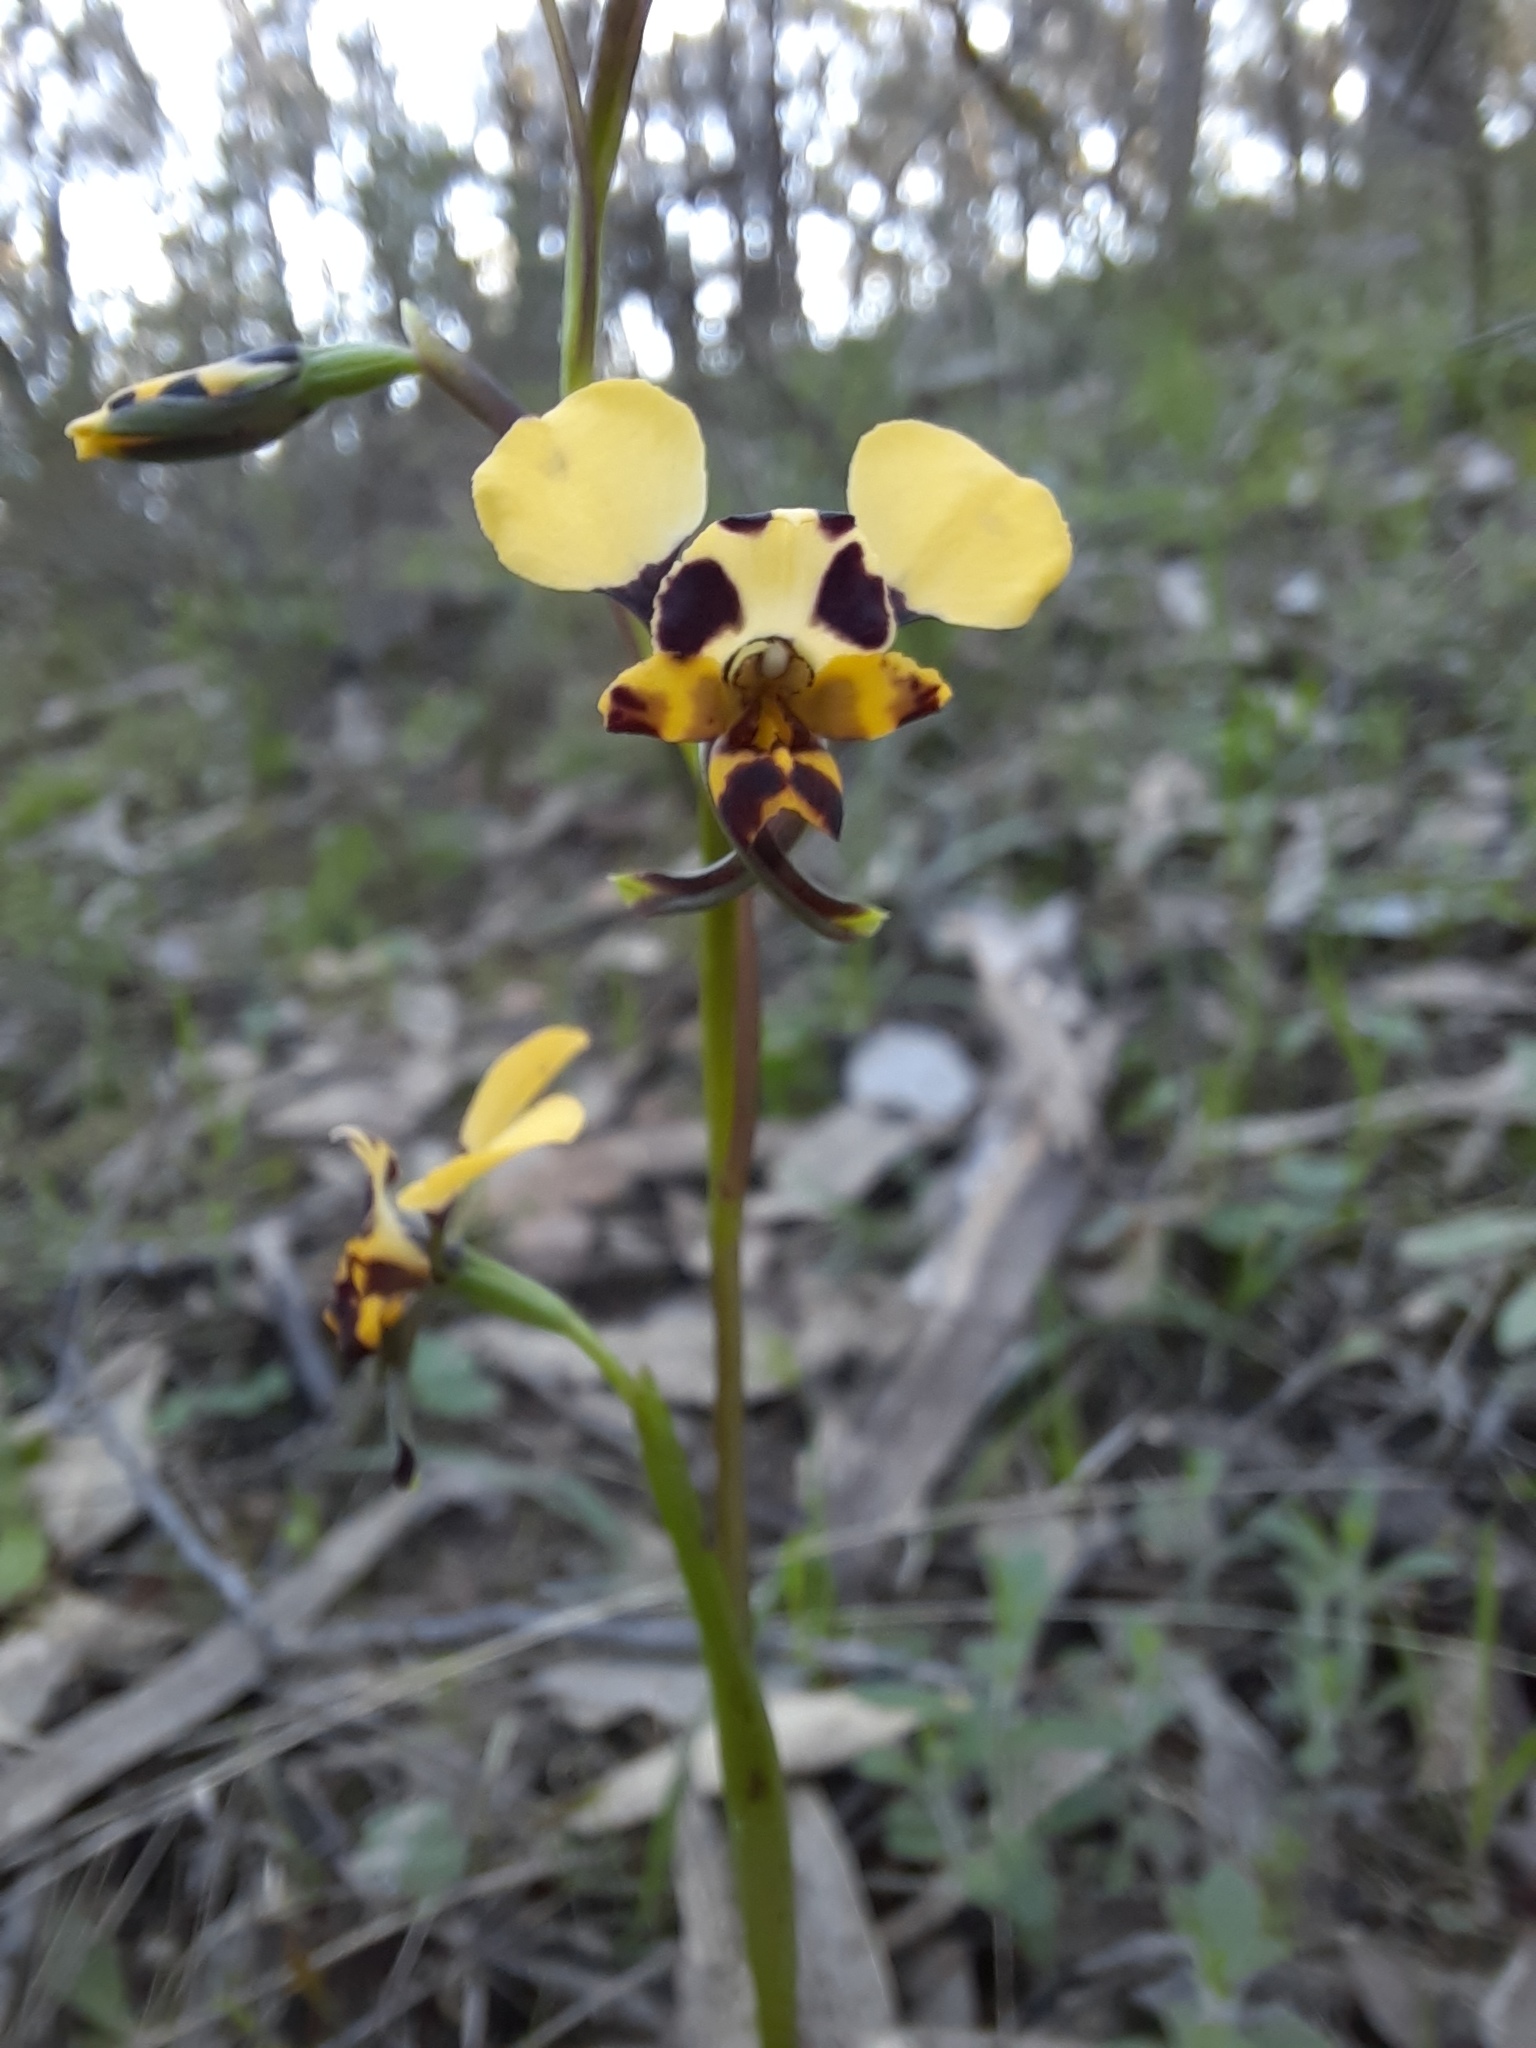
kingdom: Plantae
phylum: Tracheophyta
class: Liliopsida
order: Asparagales
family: Orchidaceae
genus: Diuris
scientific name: Diuris pardina
